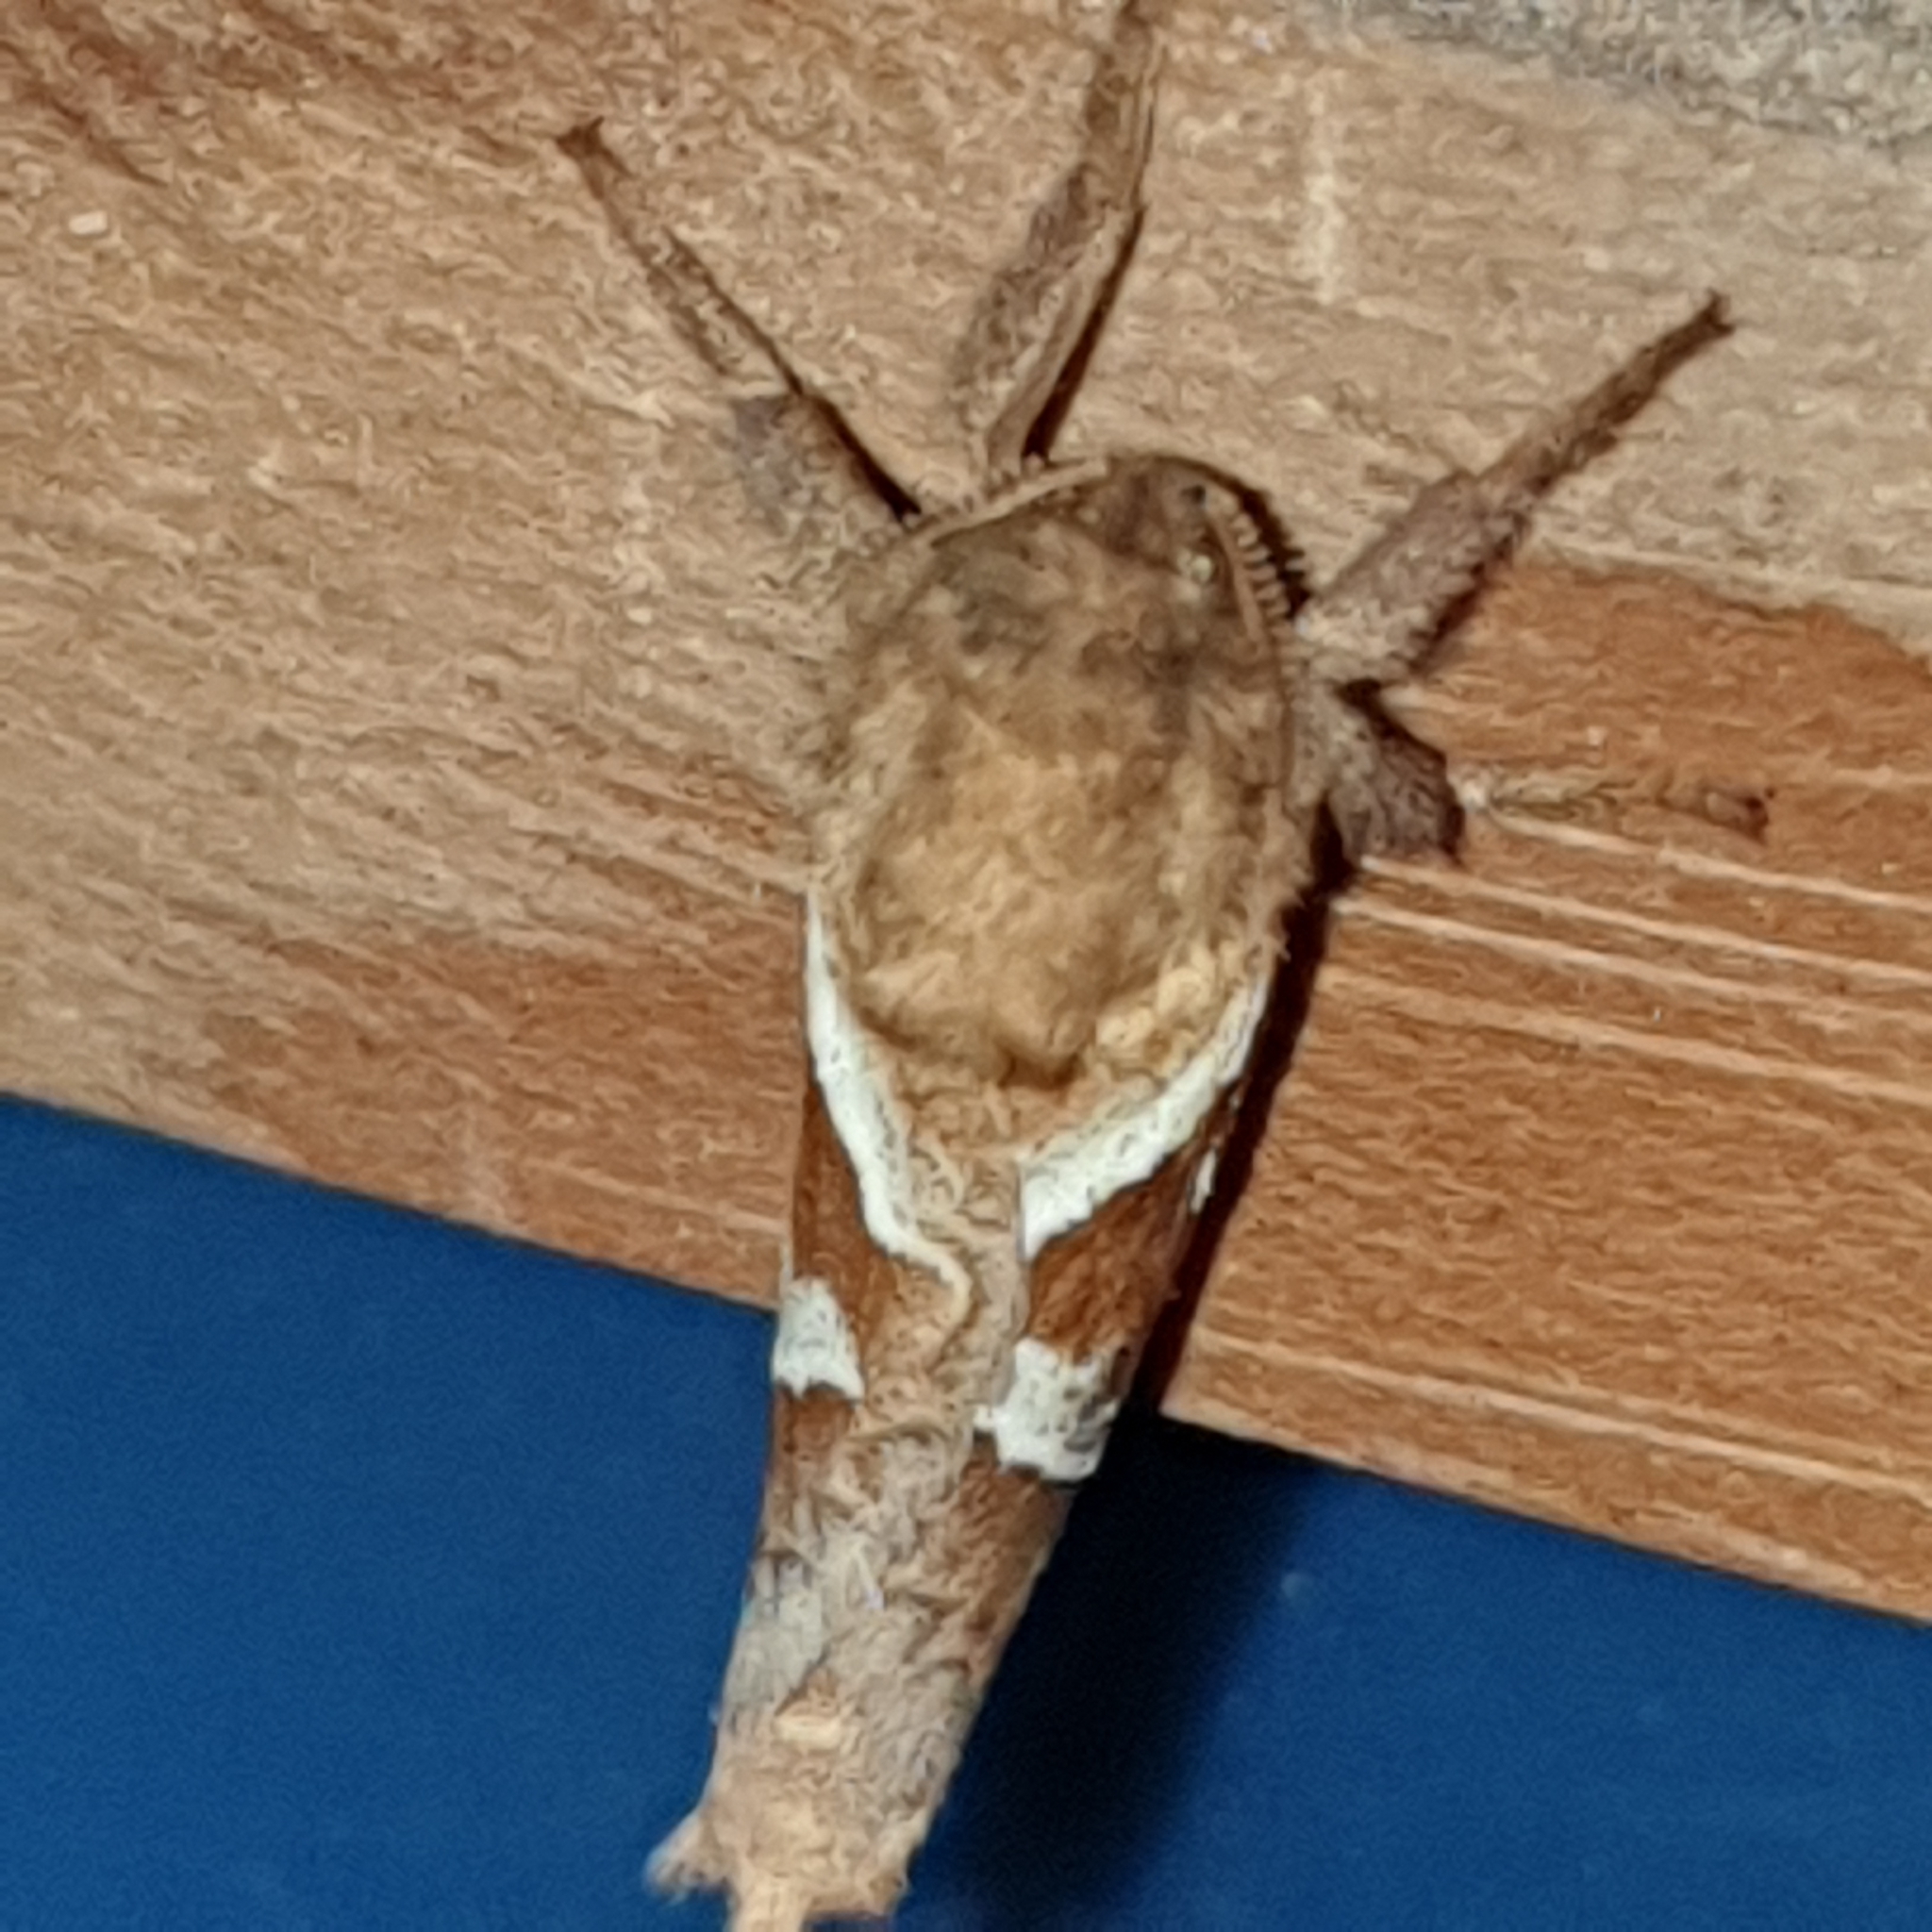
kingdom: Animalia
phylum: Arthropoda
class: Insecta
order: Lepidoptera
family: Hepialidae
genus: Triodia
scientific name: Triodia sylvina
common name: Orange swift
